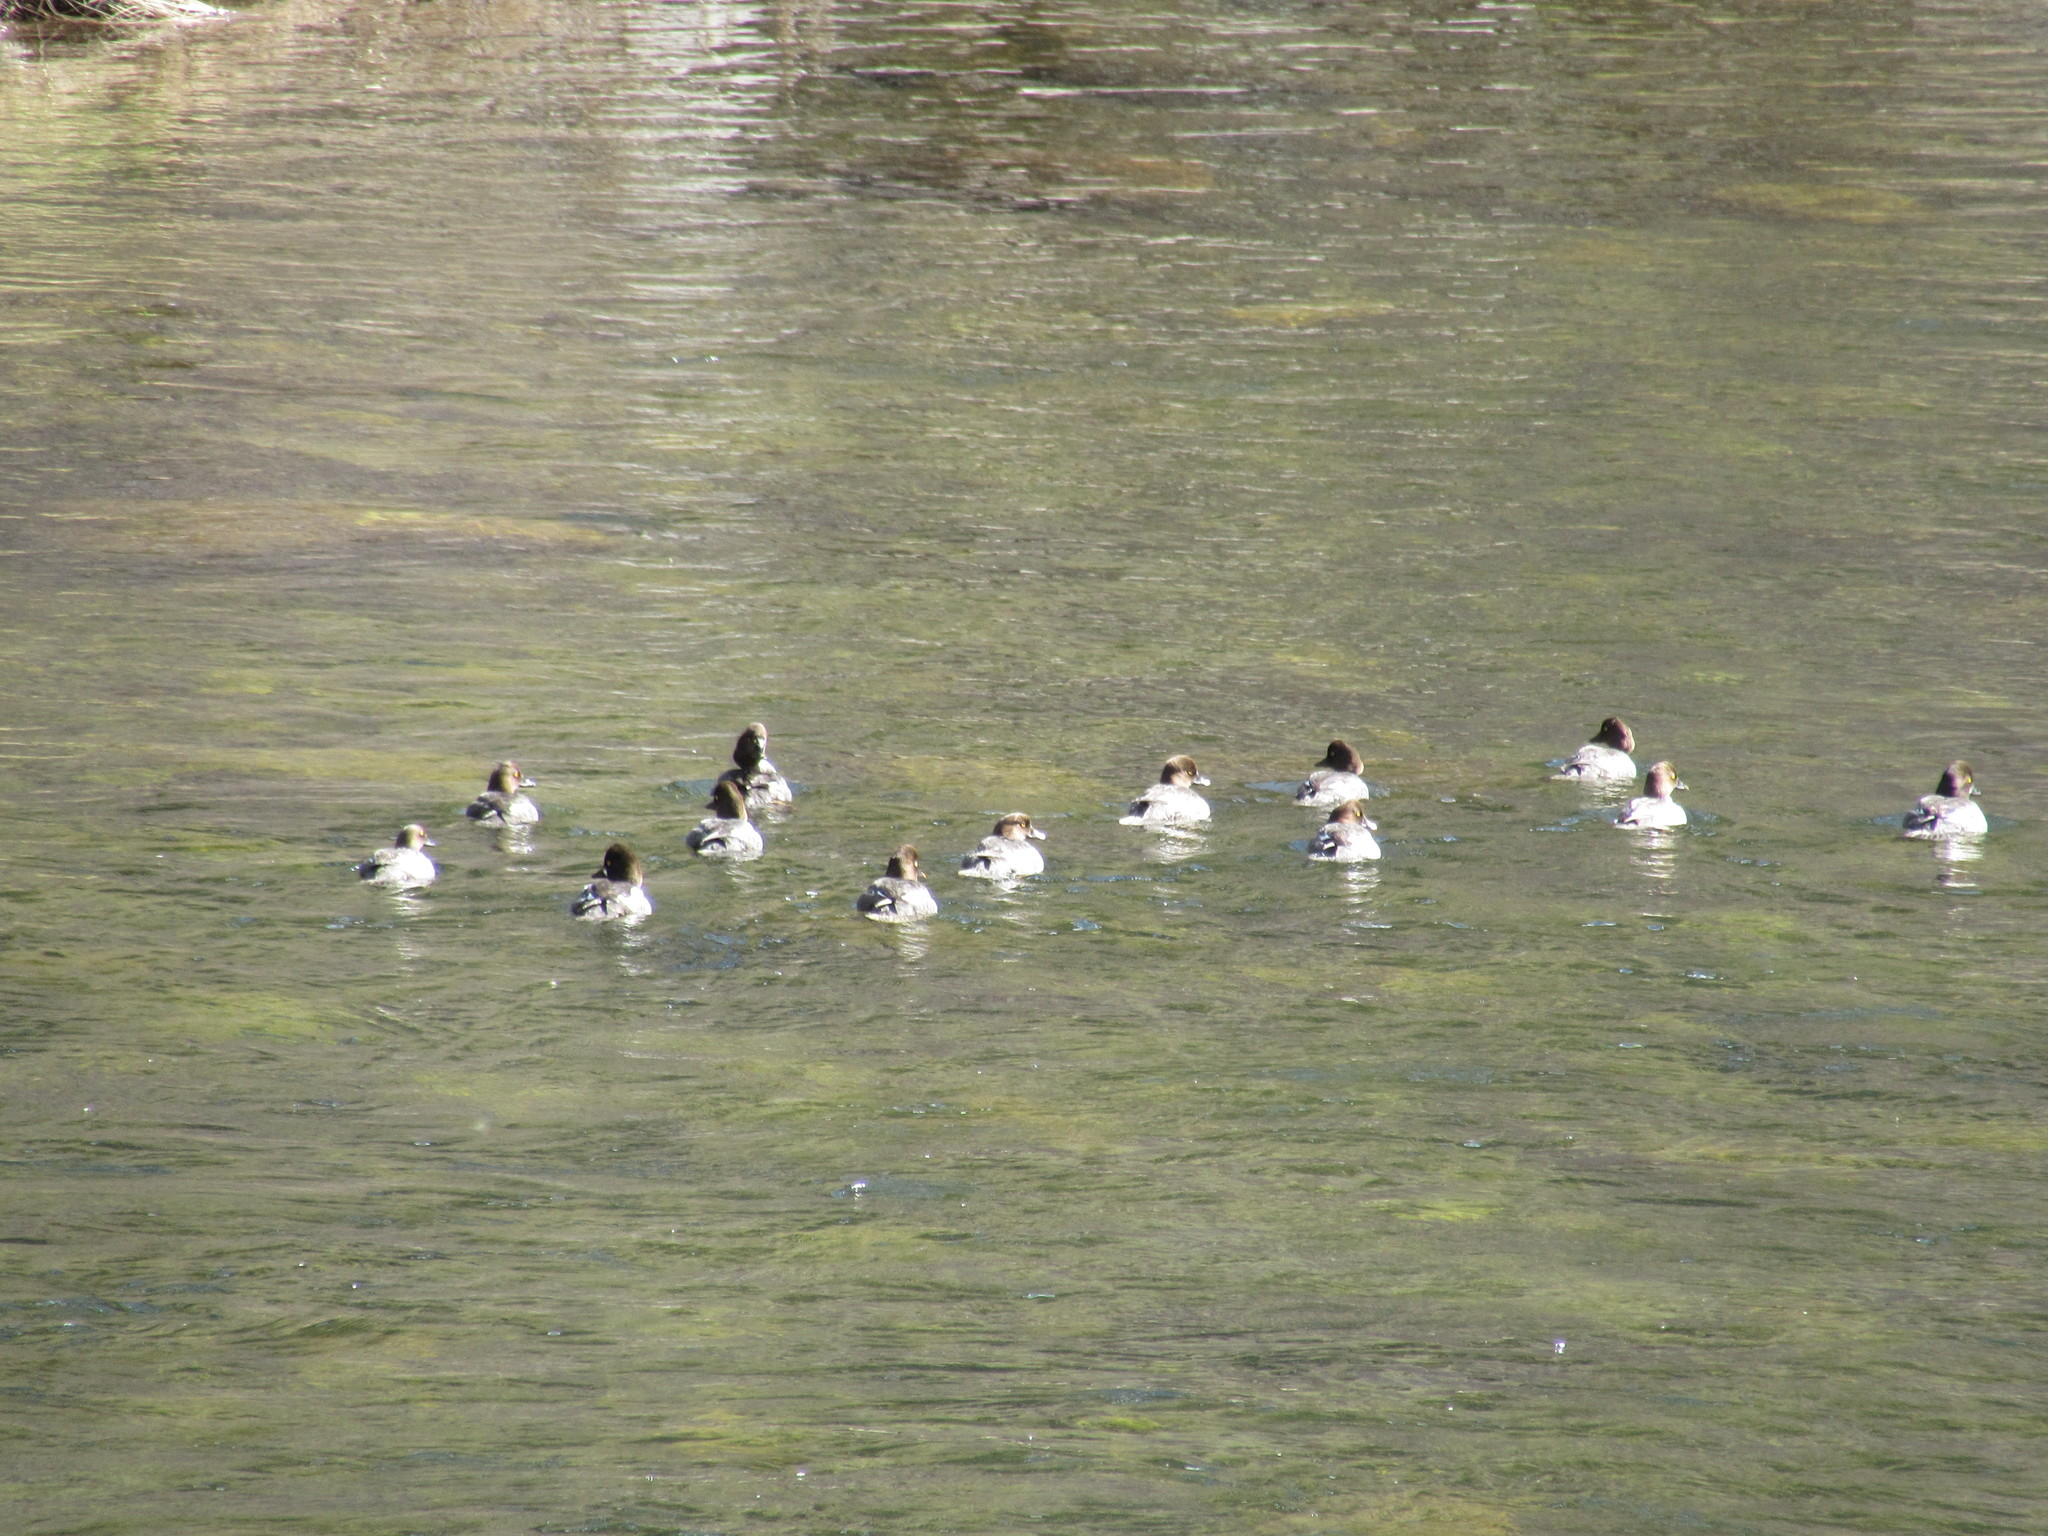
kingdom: Animalia
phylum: Chordata
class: Aves
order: Anseriformes
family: Anatidae
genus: Bucephala
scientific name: Bucephala clangula
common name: Common goldeneye
